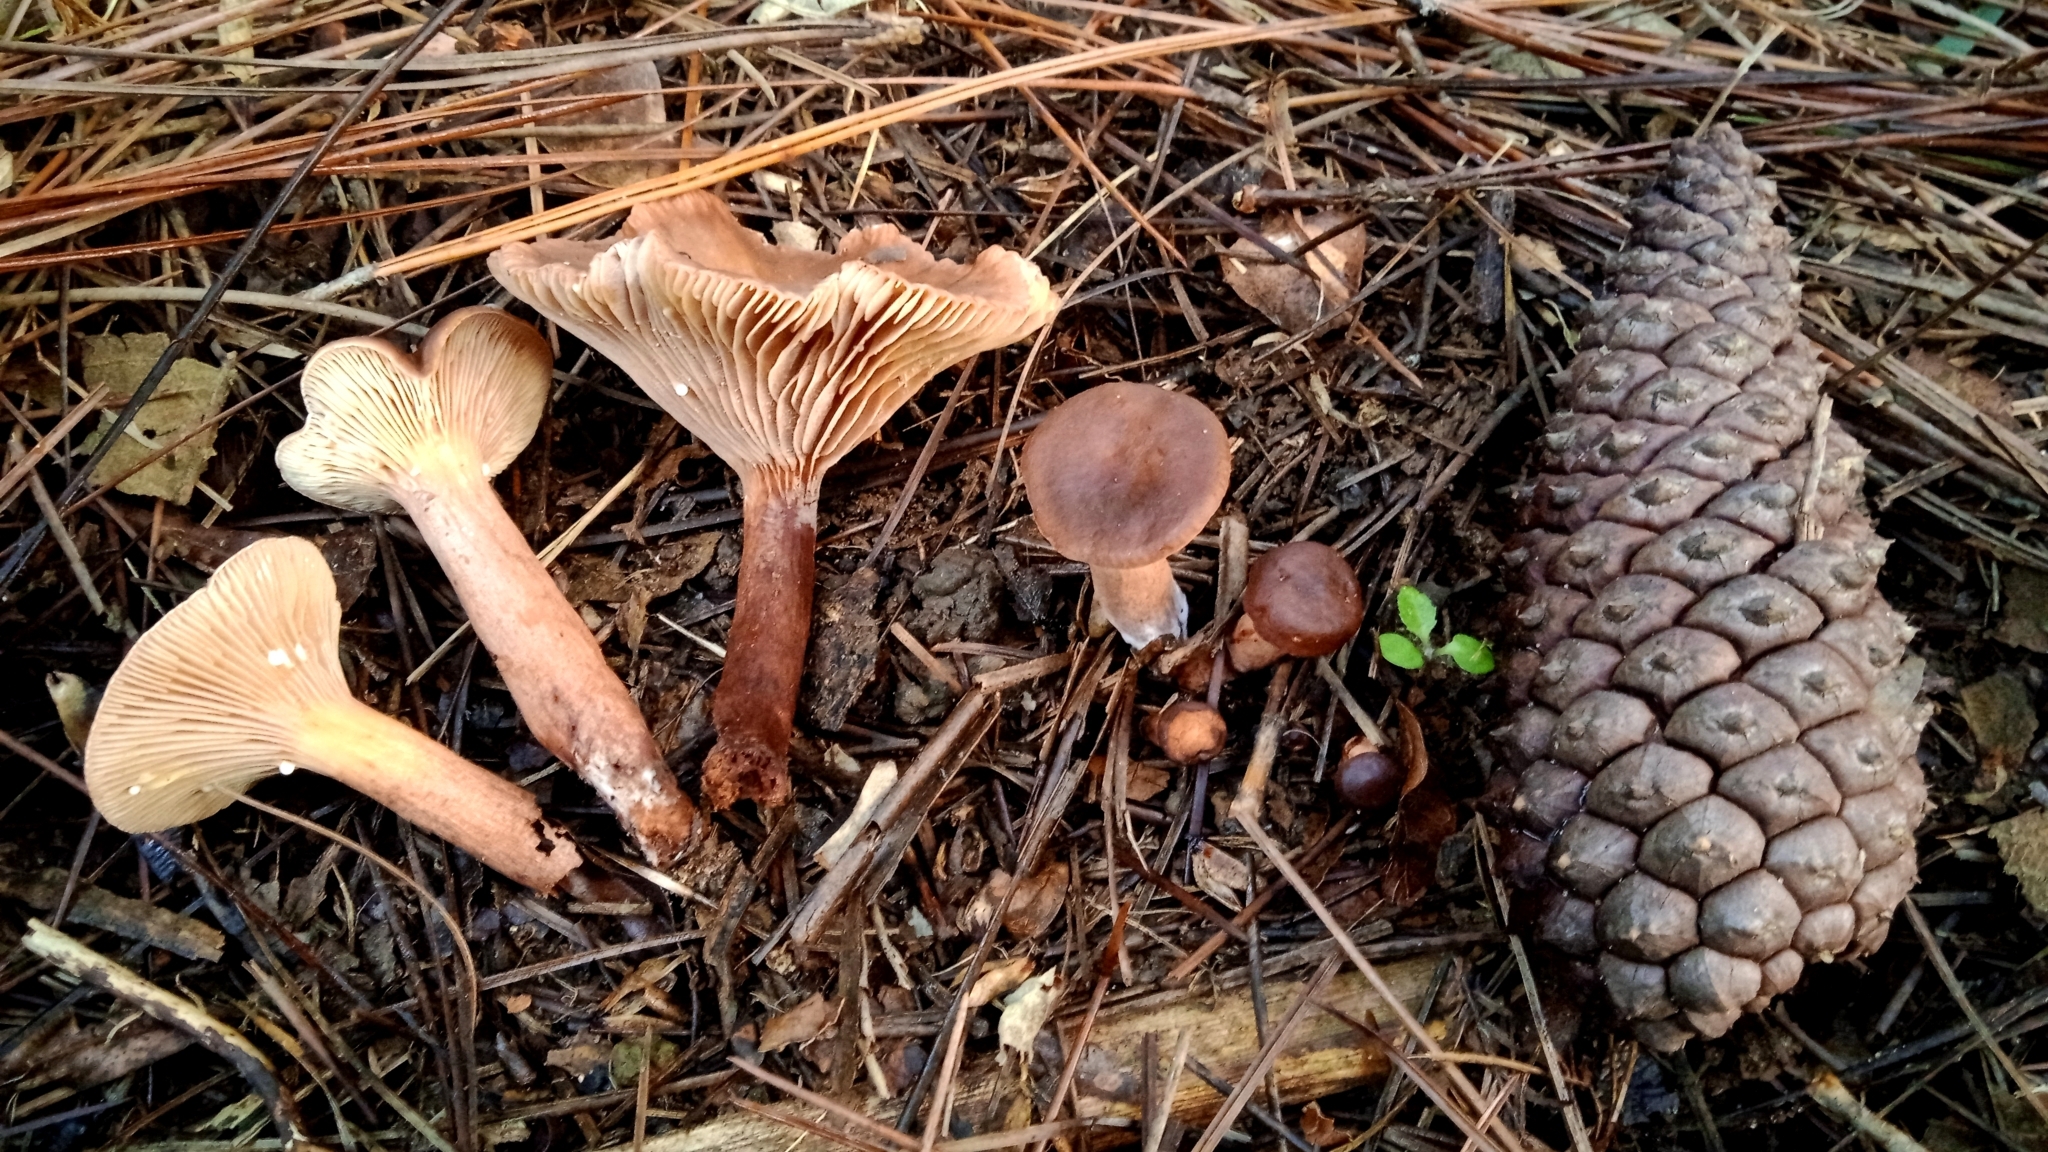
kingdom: Fungi
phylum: Basidiomycota
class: Agaricomycetes
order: Russulales
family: Russulaceae
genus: Lactarius
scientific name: Lactarius hepaticus
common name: Liver milkcap
